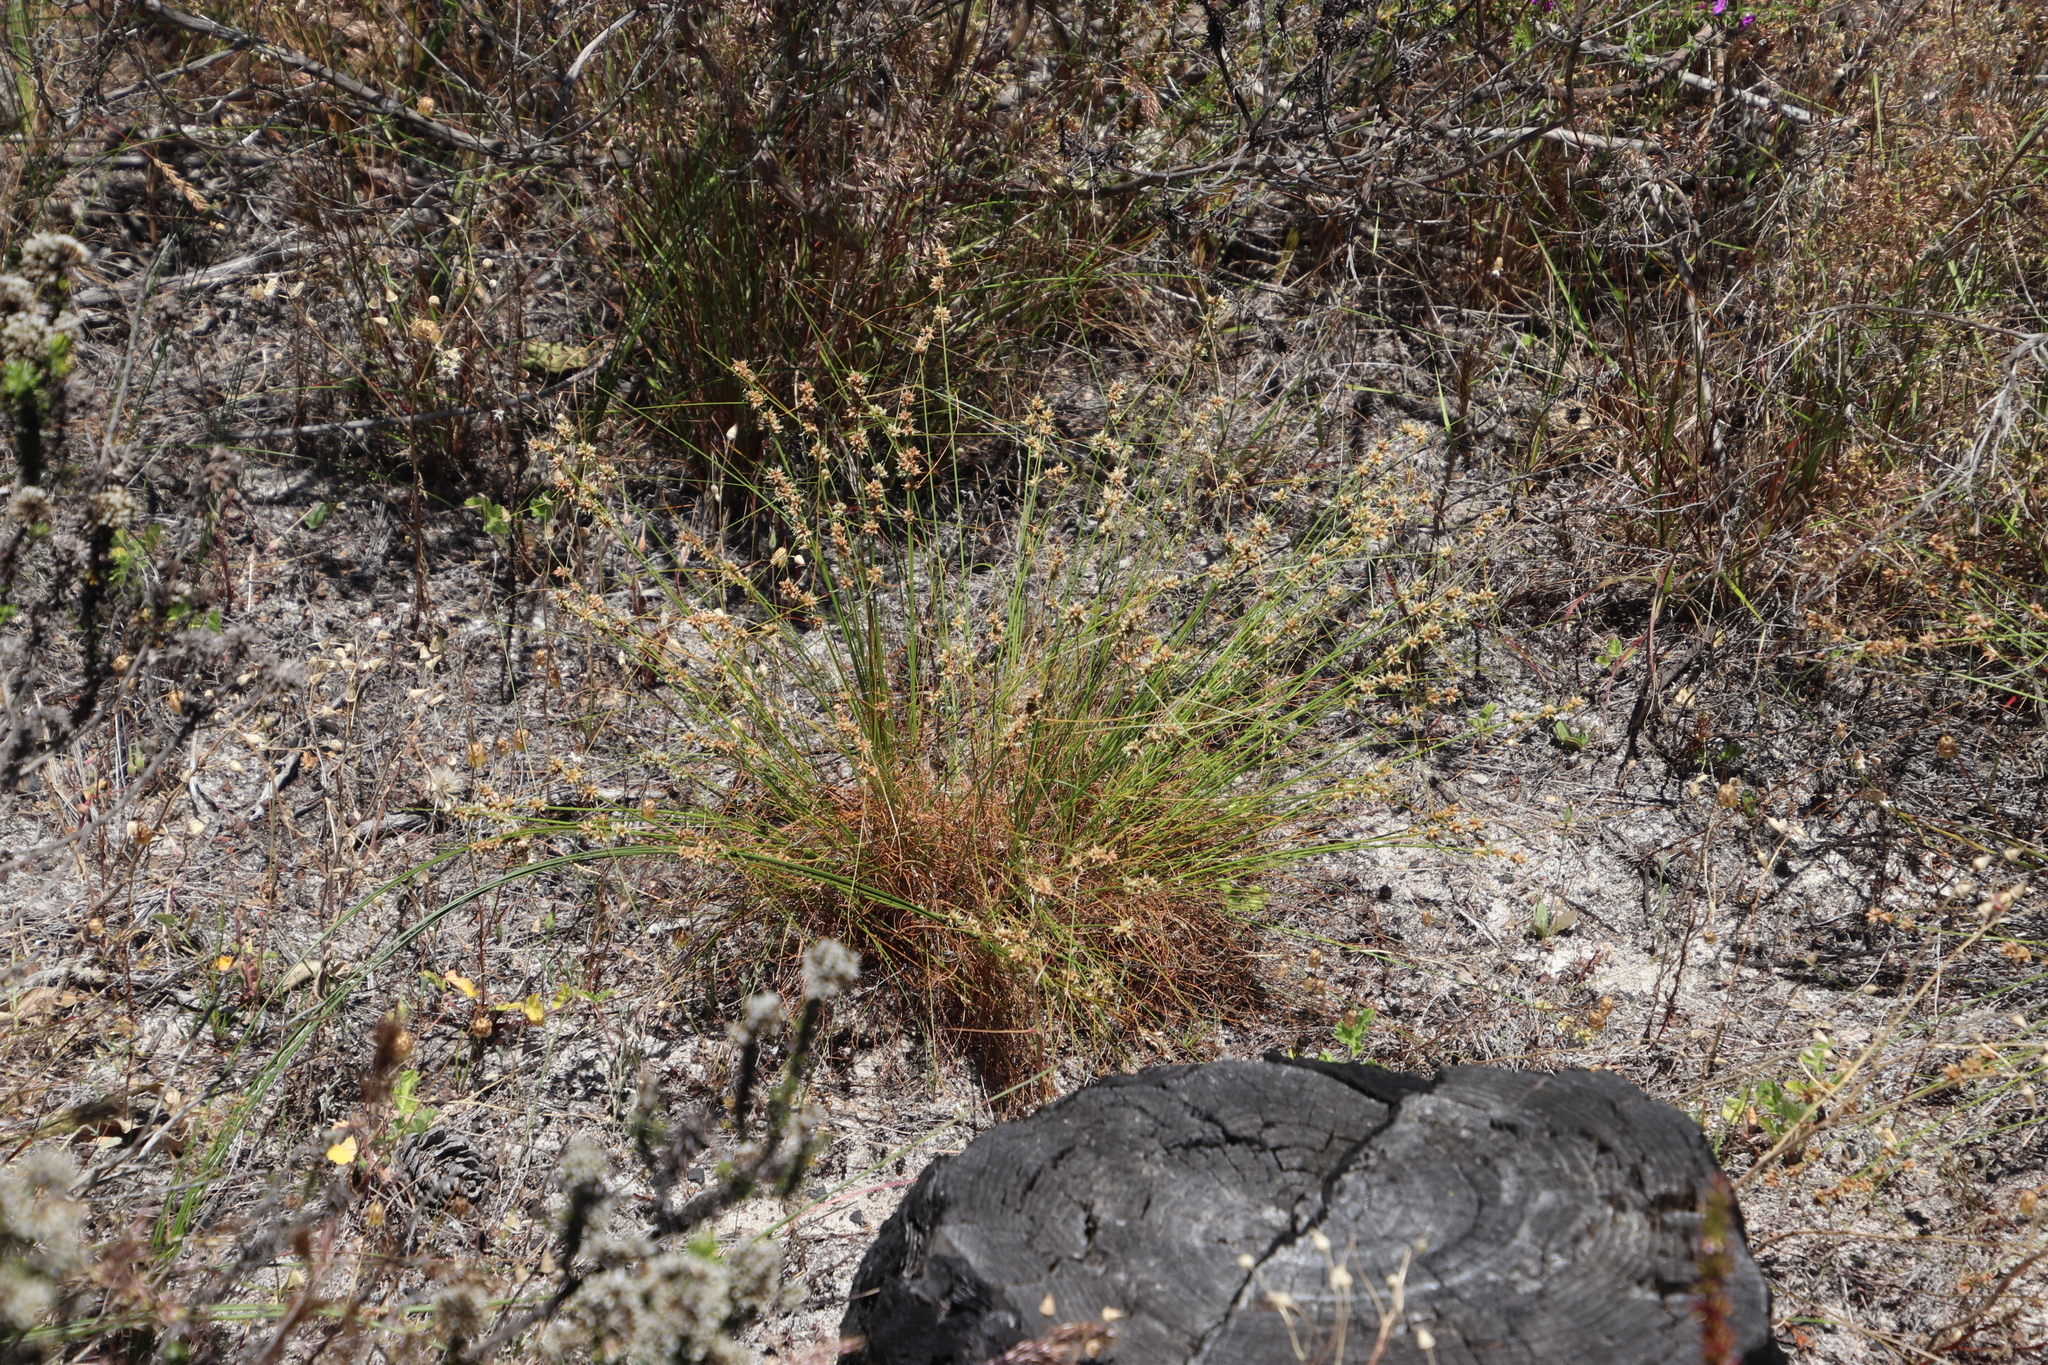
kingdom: Plantae
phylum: Tracheophyta
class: Liliopsida
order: Poales
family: Cyperaceae
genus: Ficinia
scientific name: Ficinia bulbosa
